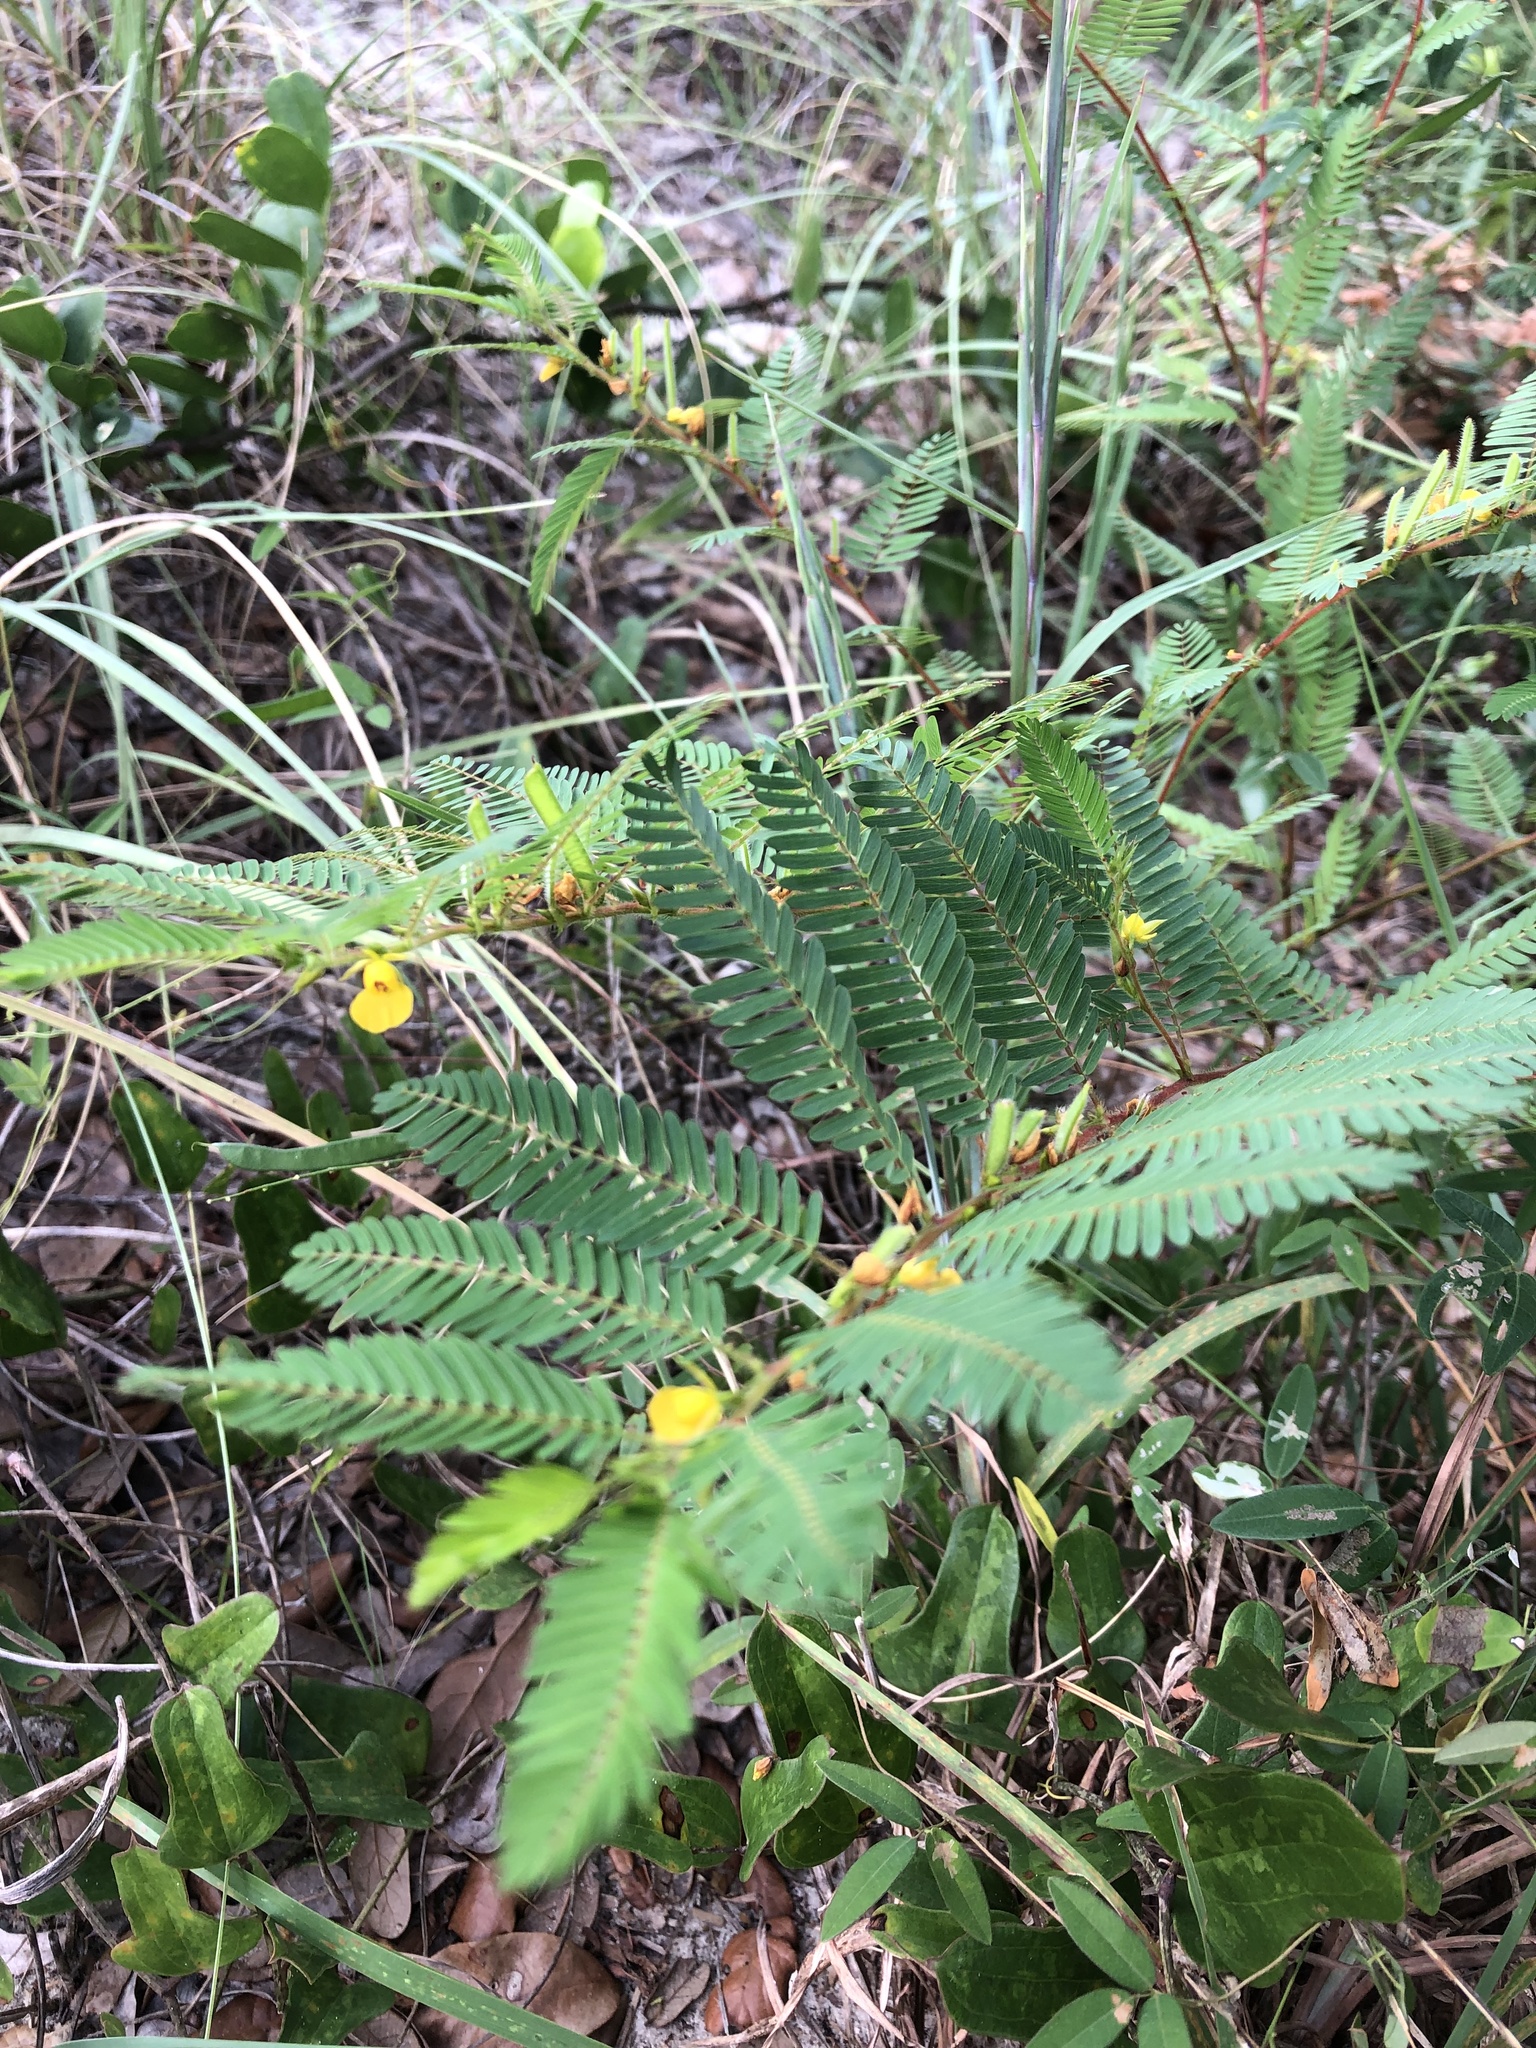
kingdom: Plantae
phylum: Tracheophyta
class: Magnoliopsida
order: Fabales
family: Fabaceae
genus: Chamaecrista
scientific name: Chamaecrista nictitans
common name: Sensitive cassia
